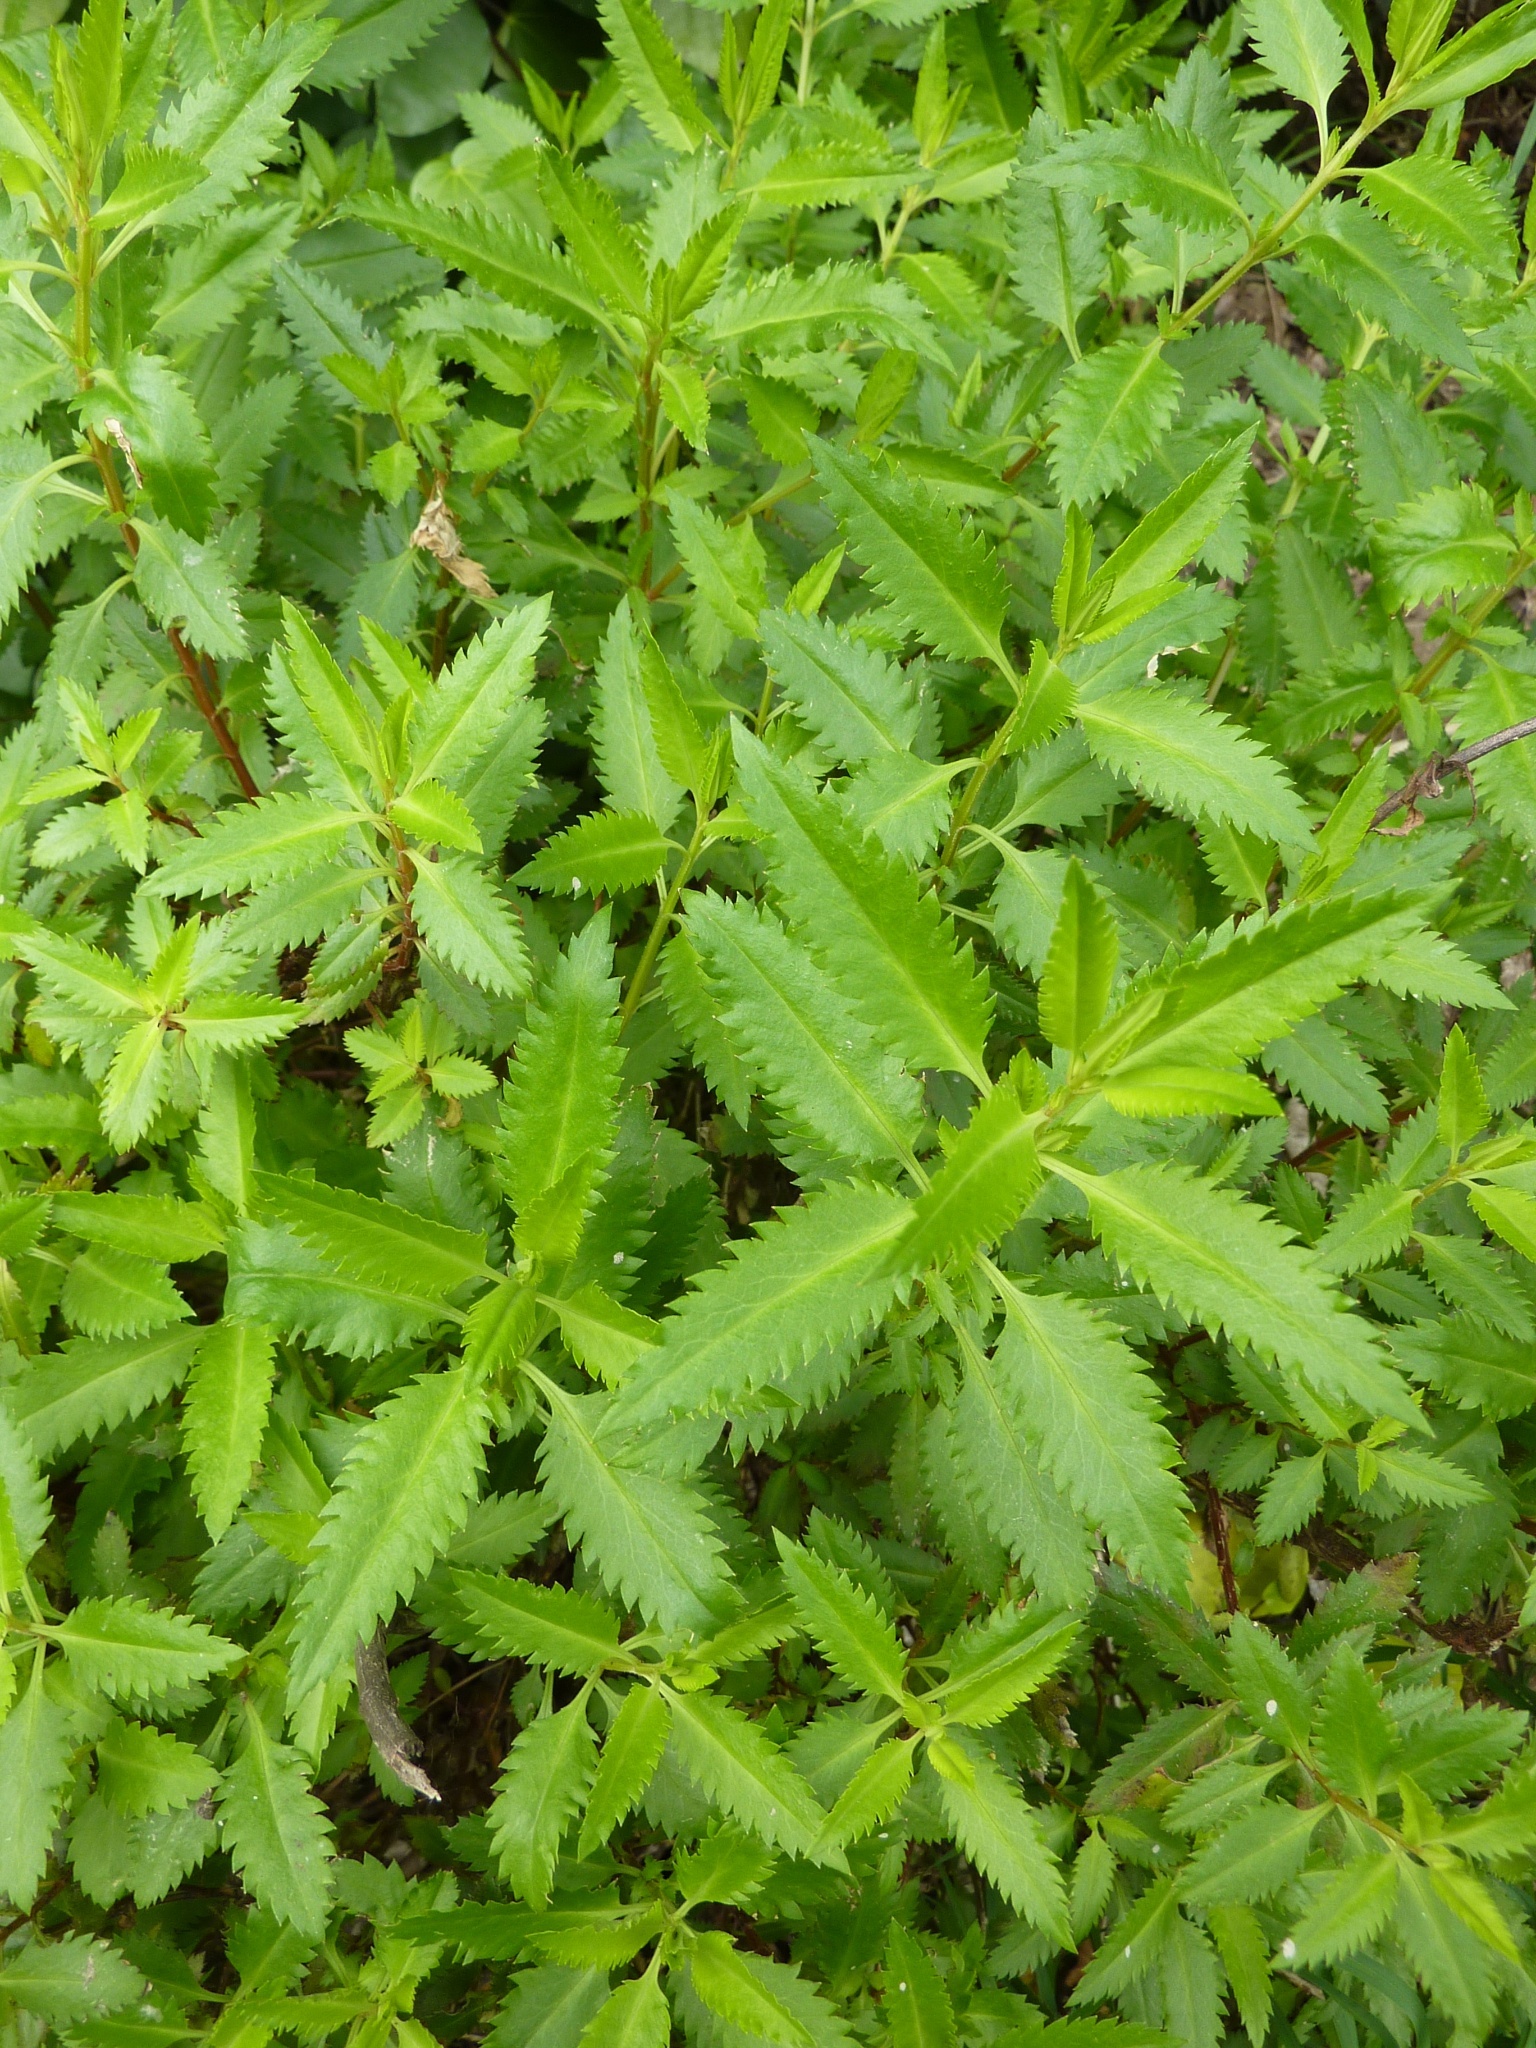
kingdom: Plantae
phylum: Tracheophyta
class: Magnoliopsida
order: Saxifragales
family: Haloragaceae
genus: Haloragis
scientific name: Haloragis erecta
